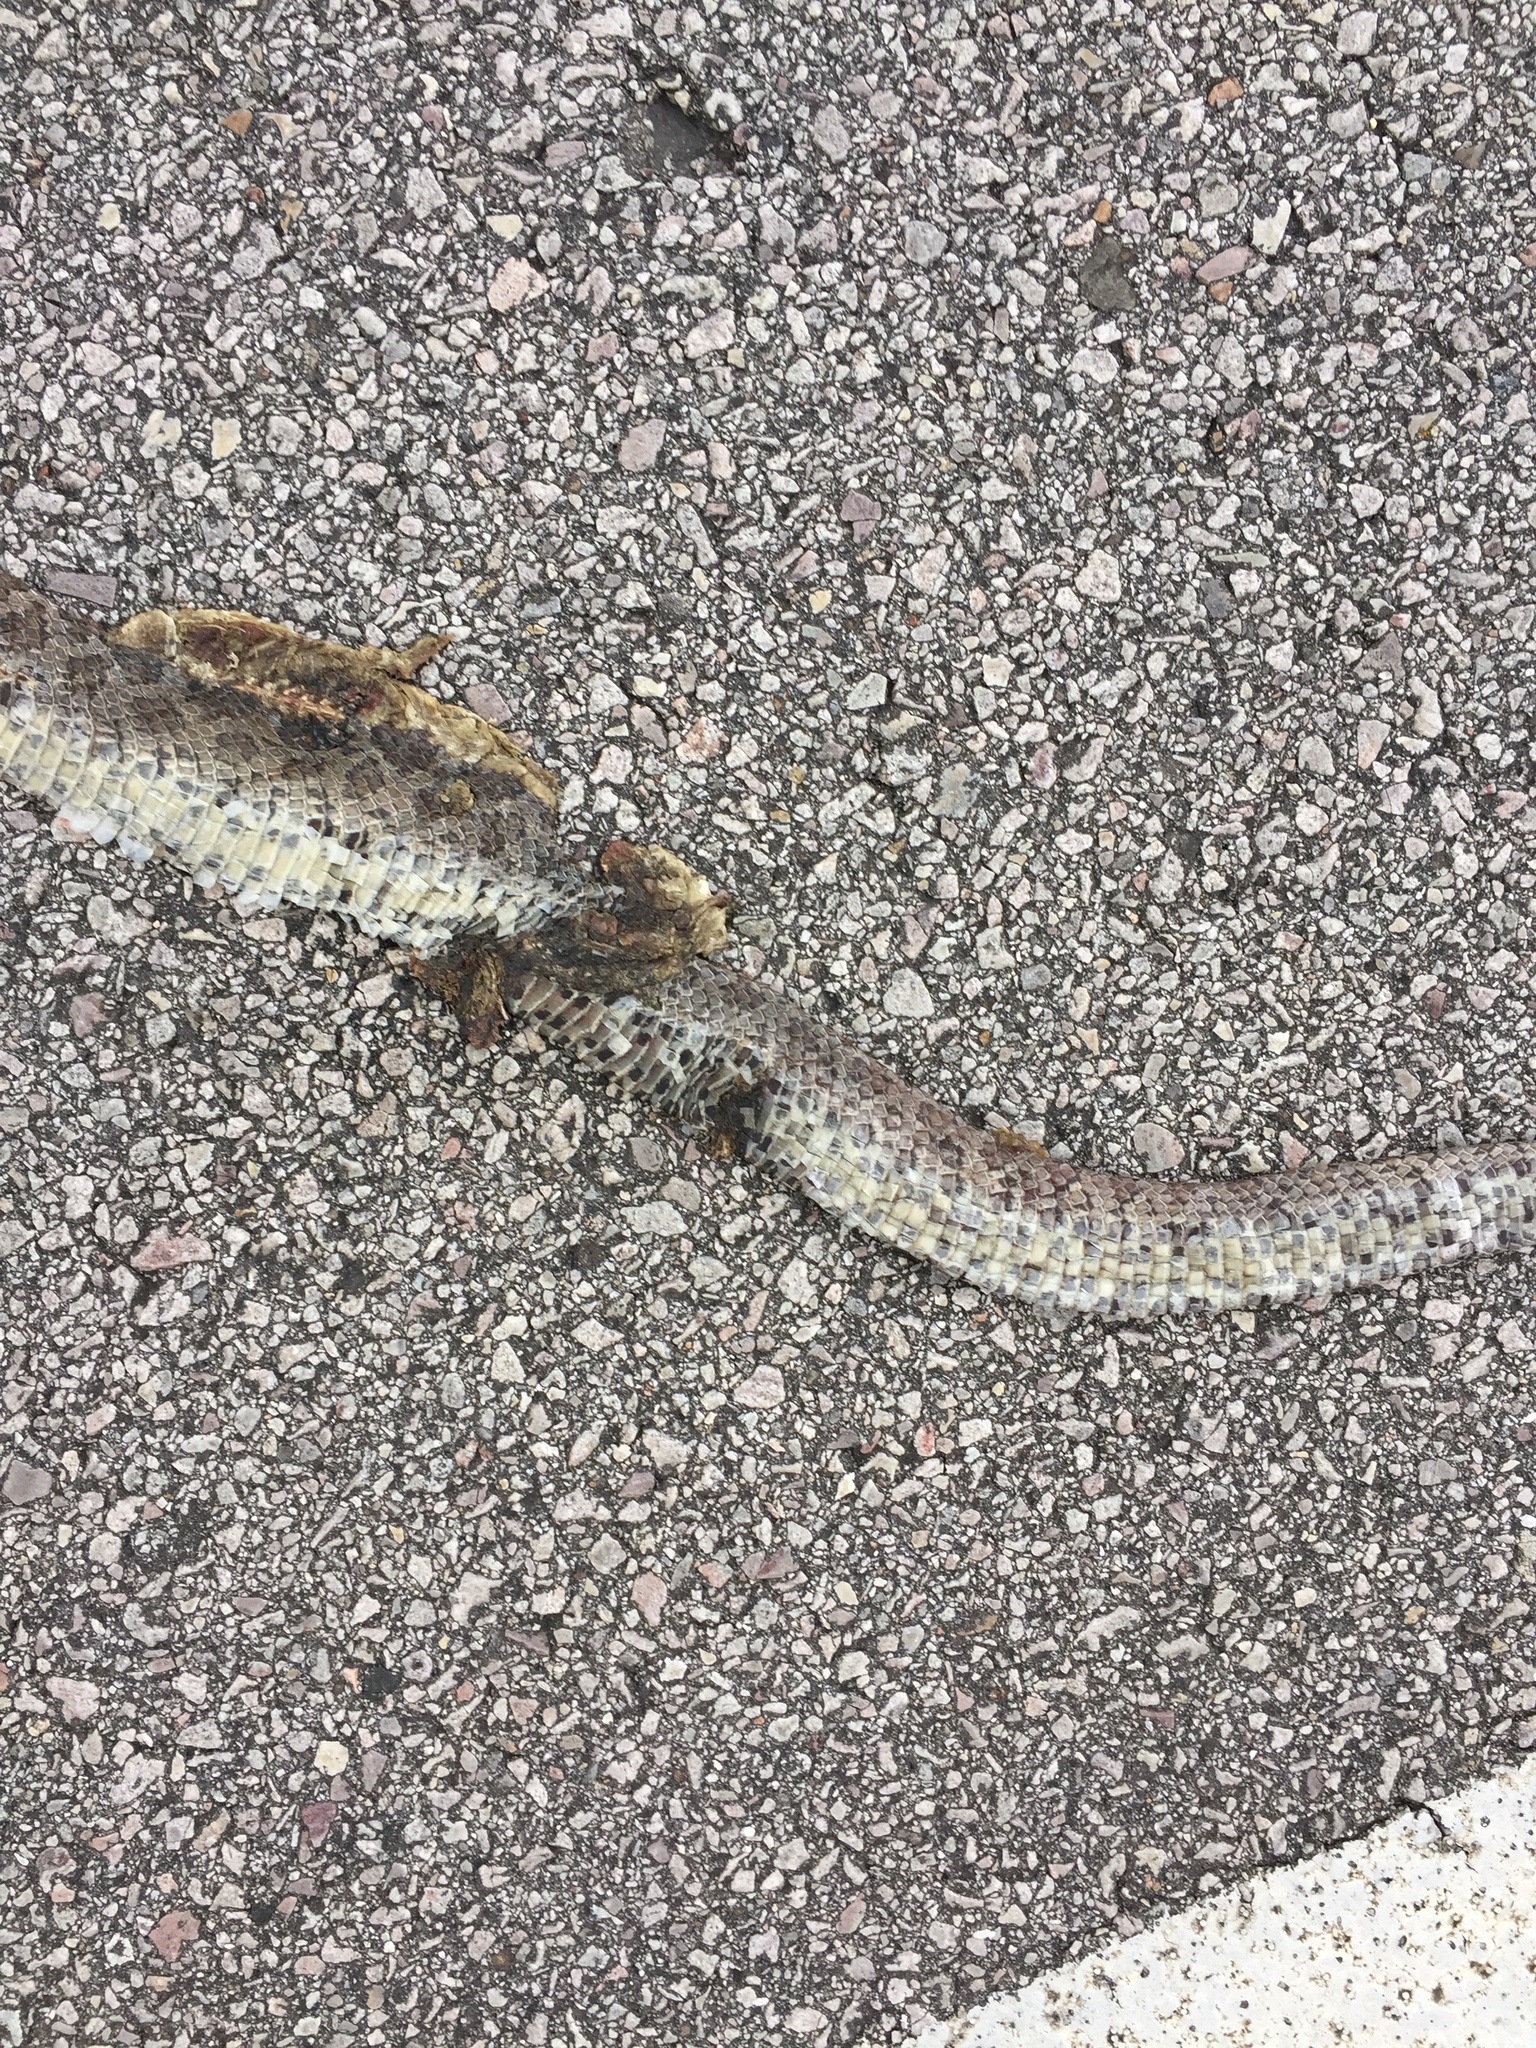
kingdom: Animalia
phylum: Chordata
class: Squamata
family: Colubridae
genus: Pantherophis
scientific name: Pantherophis emoryi
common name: Great plains rat snake
